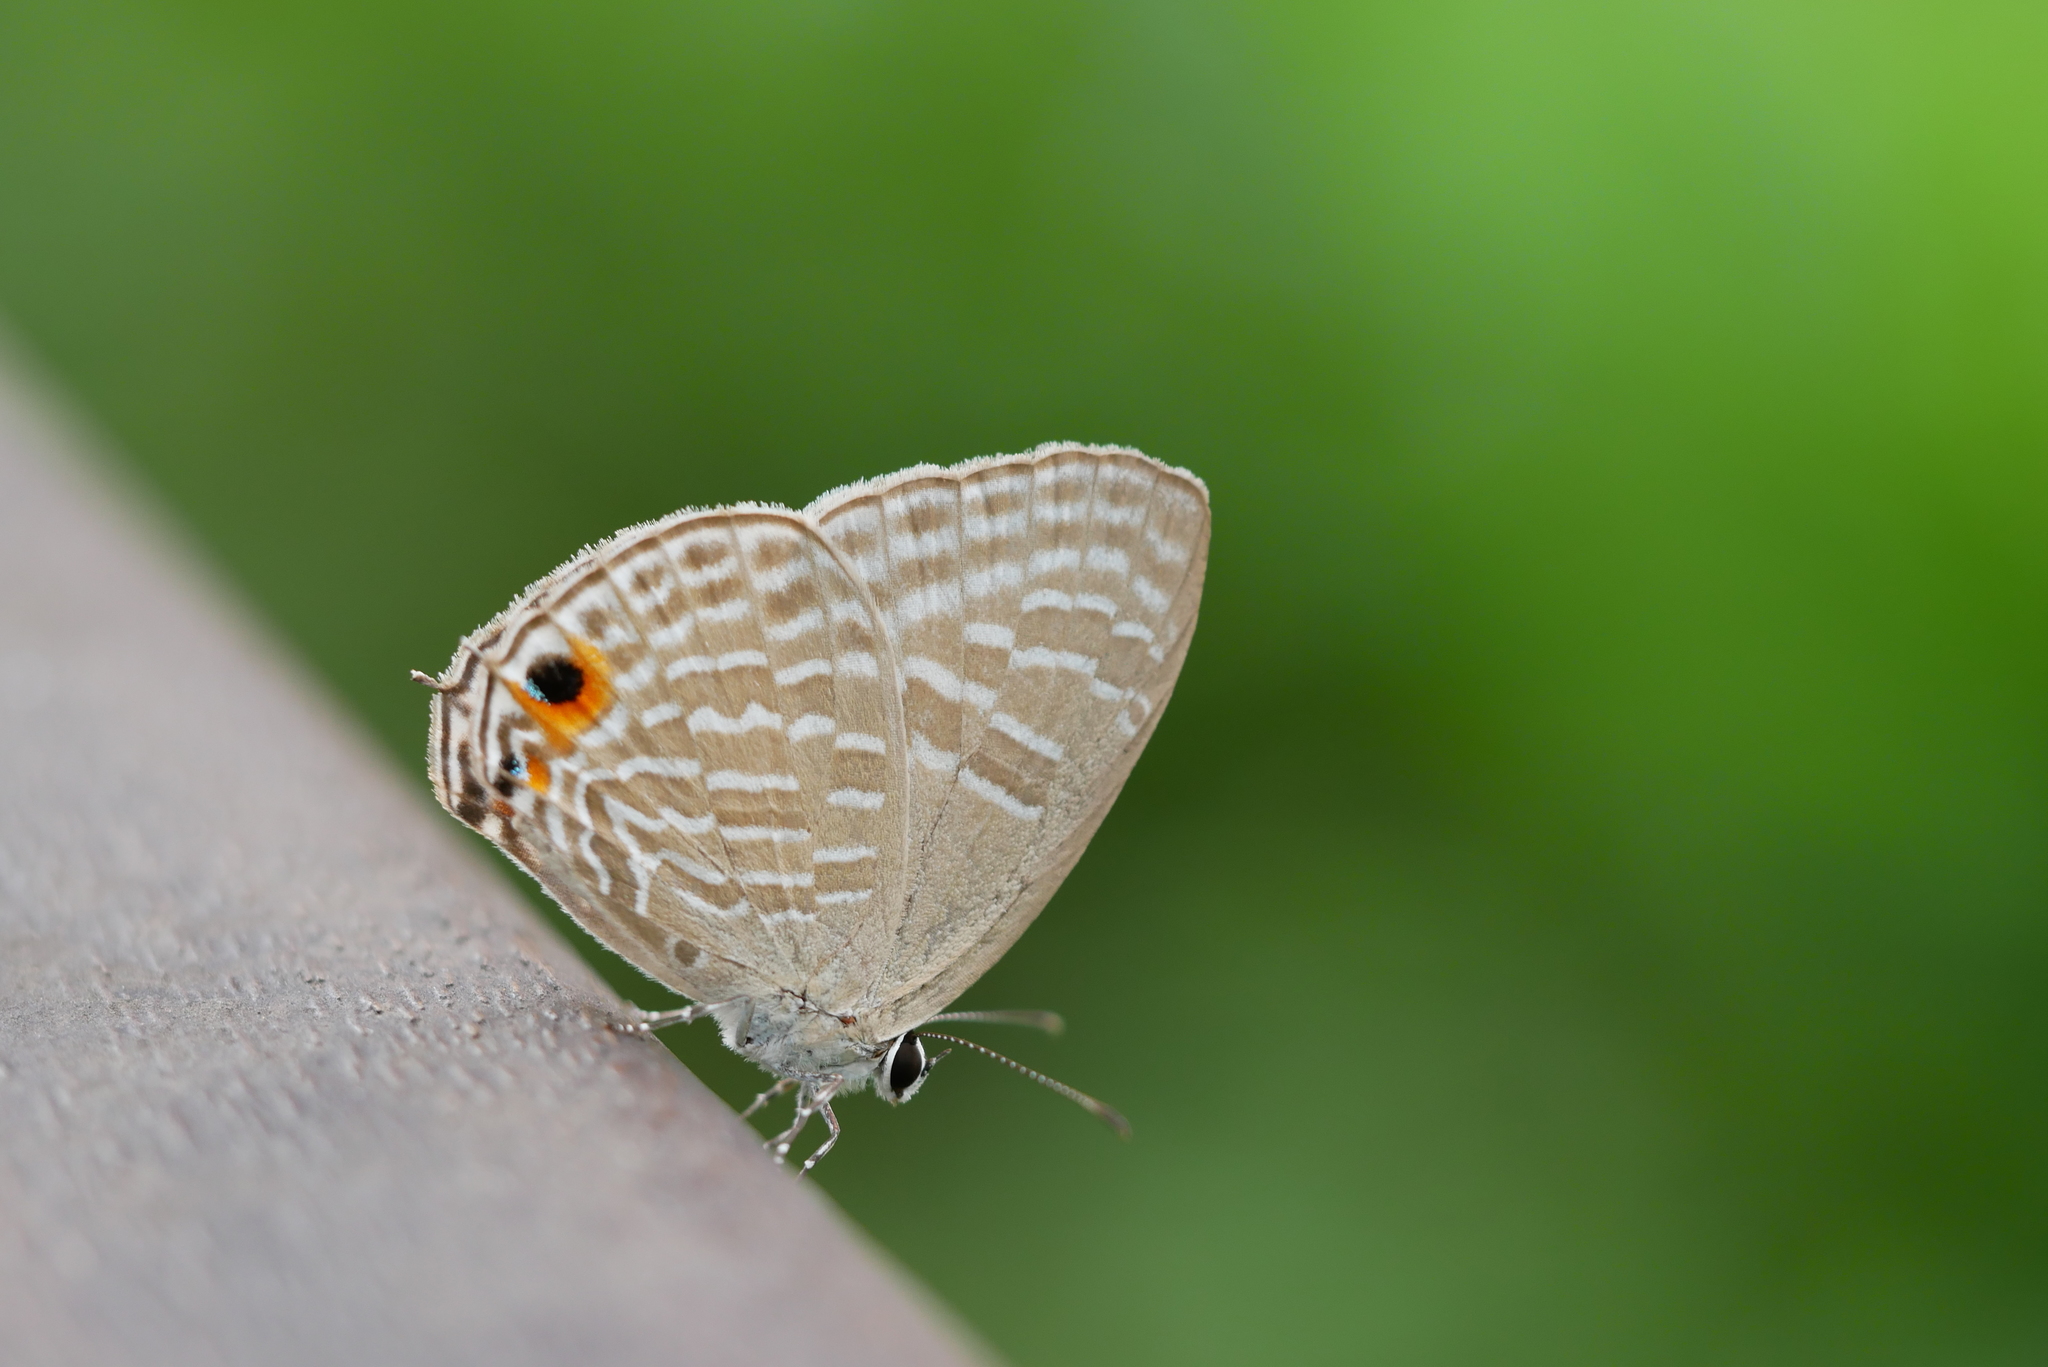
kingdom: Animalia
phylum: Arthropoda
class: Insecta
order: Lepidoptera
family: Lycaenidae
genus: Jamides
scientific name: Jamides alecto
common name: Metallic cerulean
